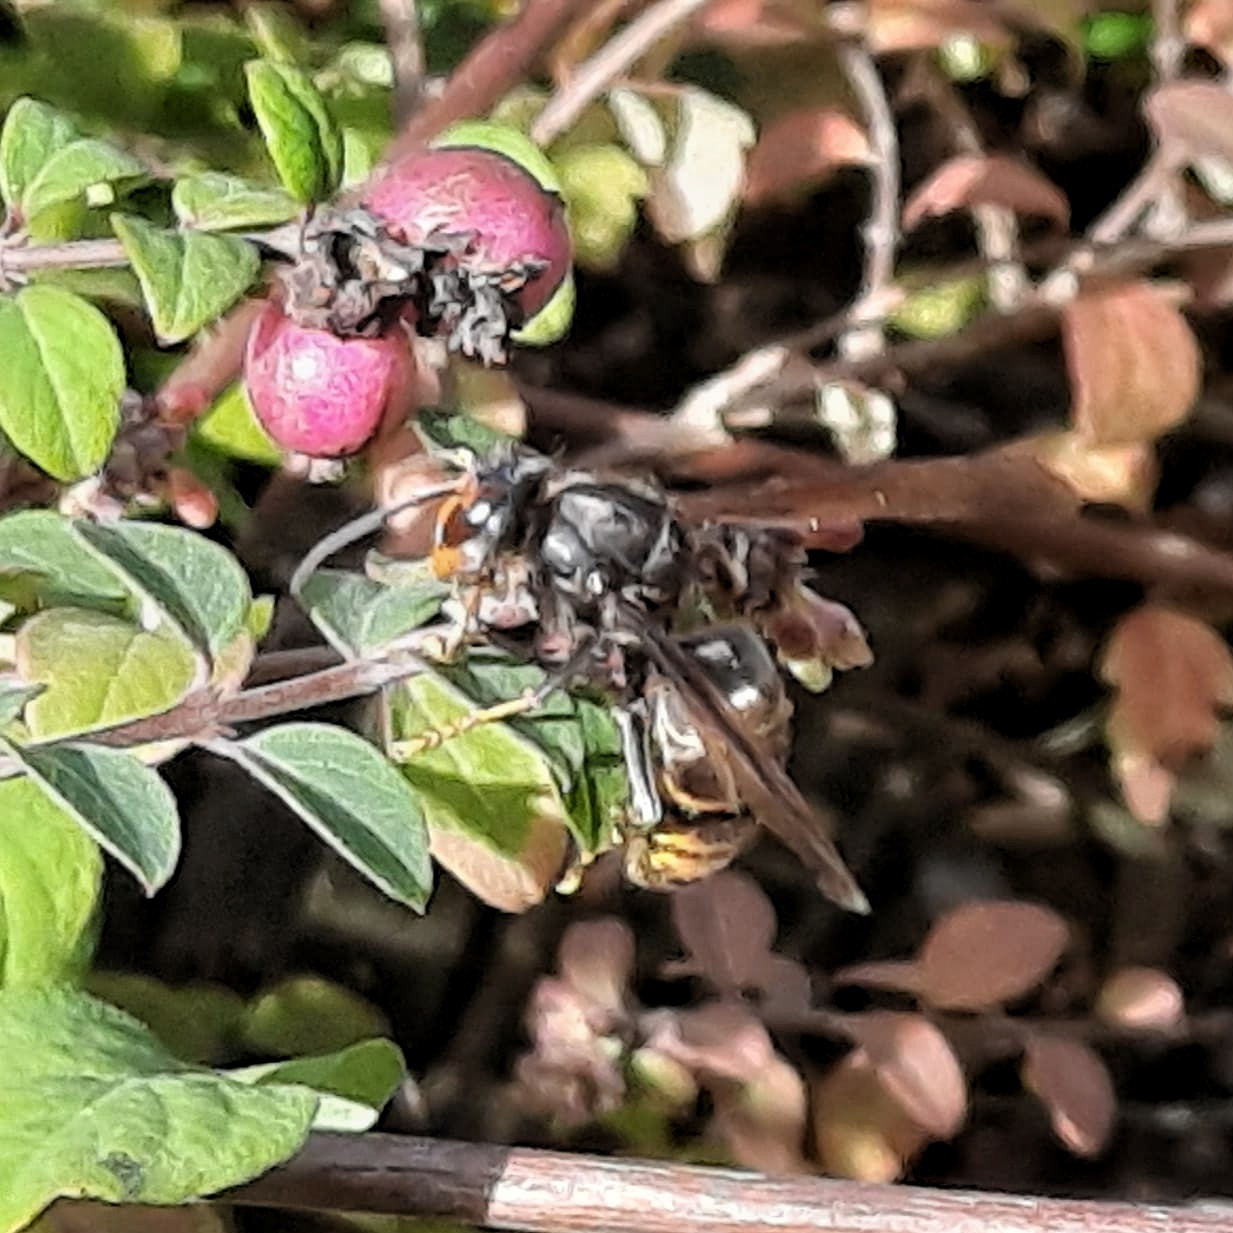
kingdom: Animalia
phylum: Arthropoda
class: Insecta
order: Hymenoptera
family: Vespidae
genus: Vespa
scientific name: Vespa velutina
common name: Asian hornet
